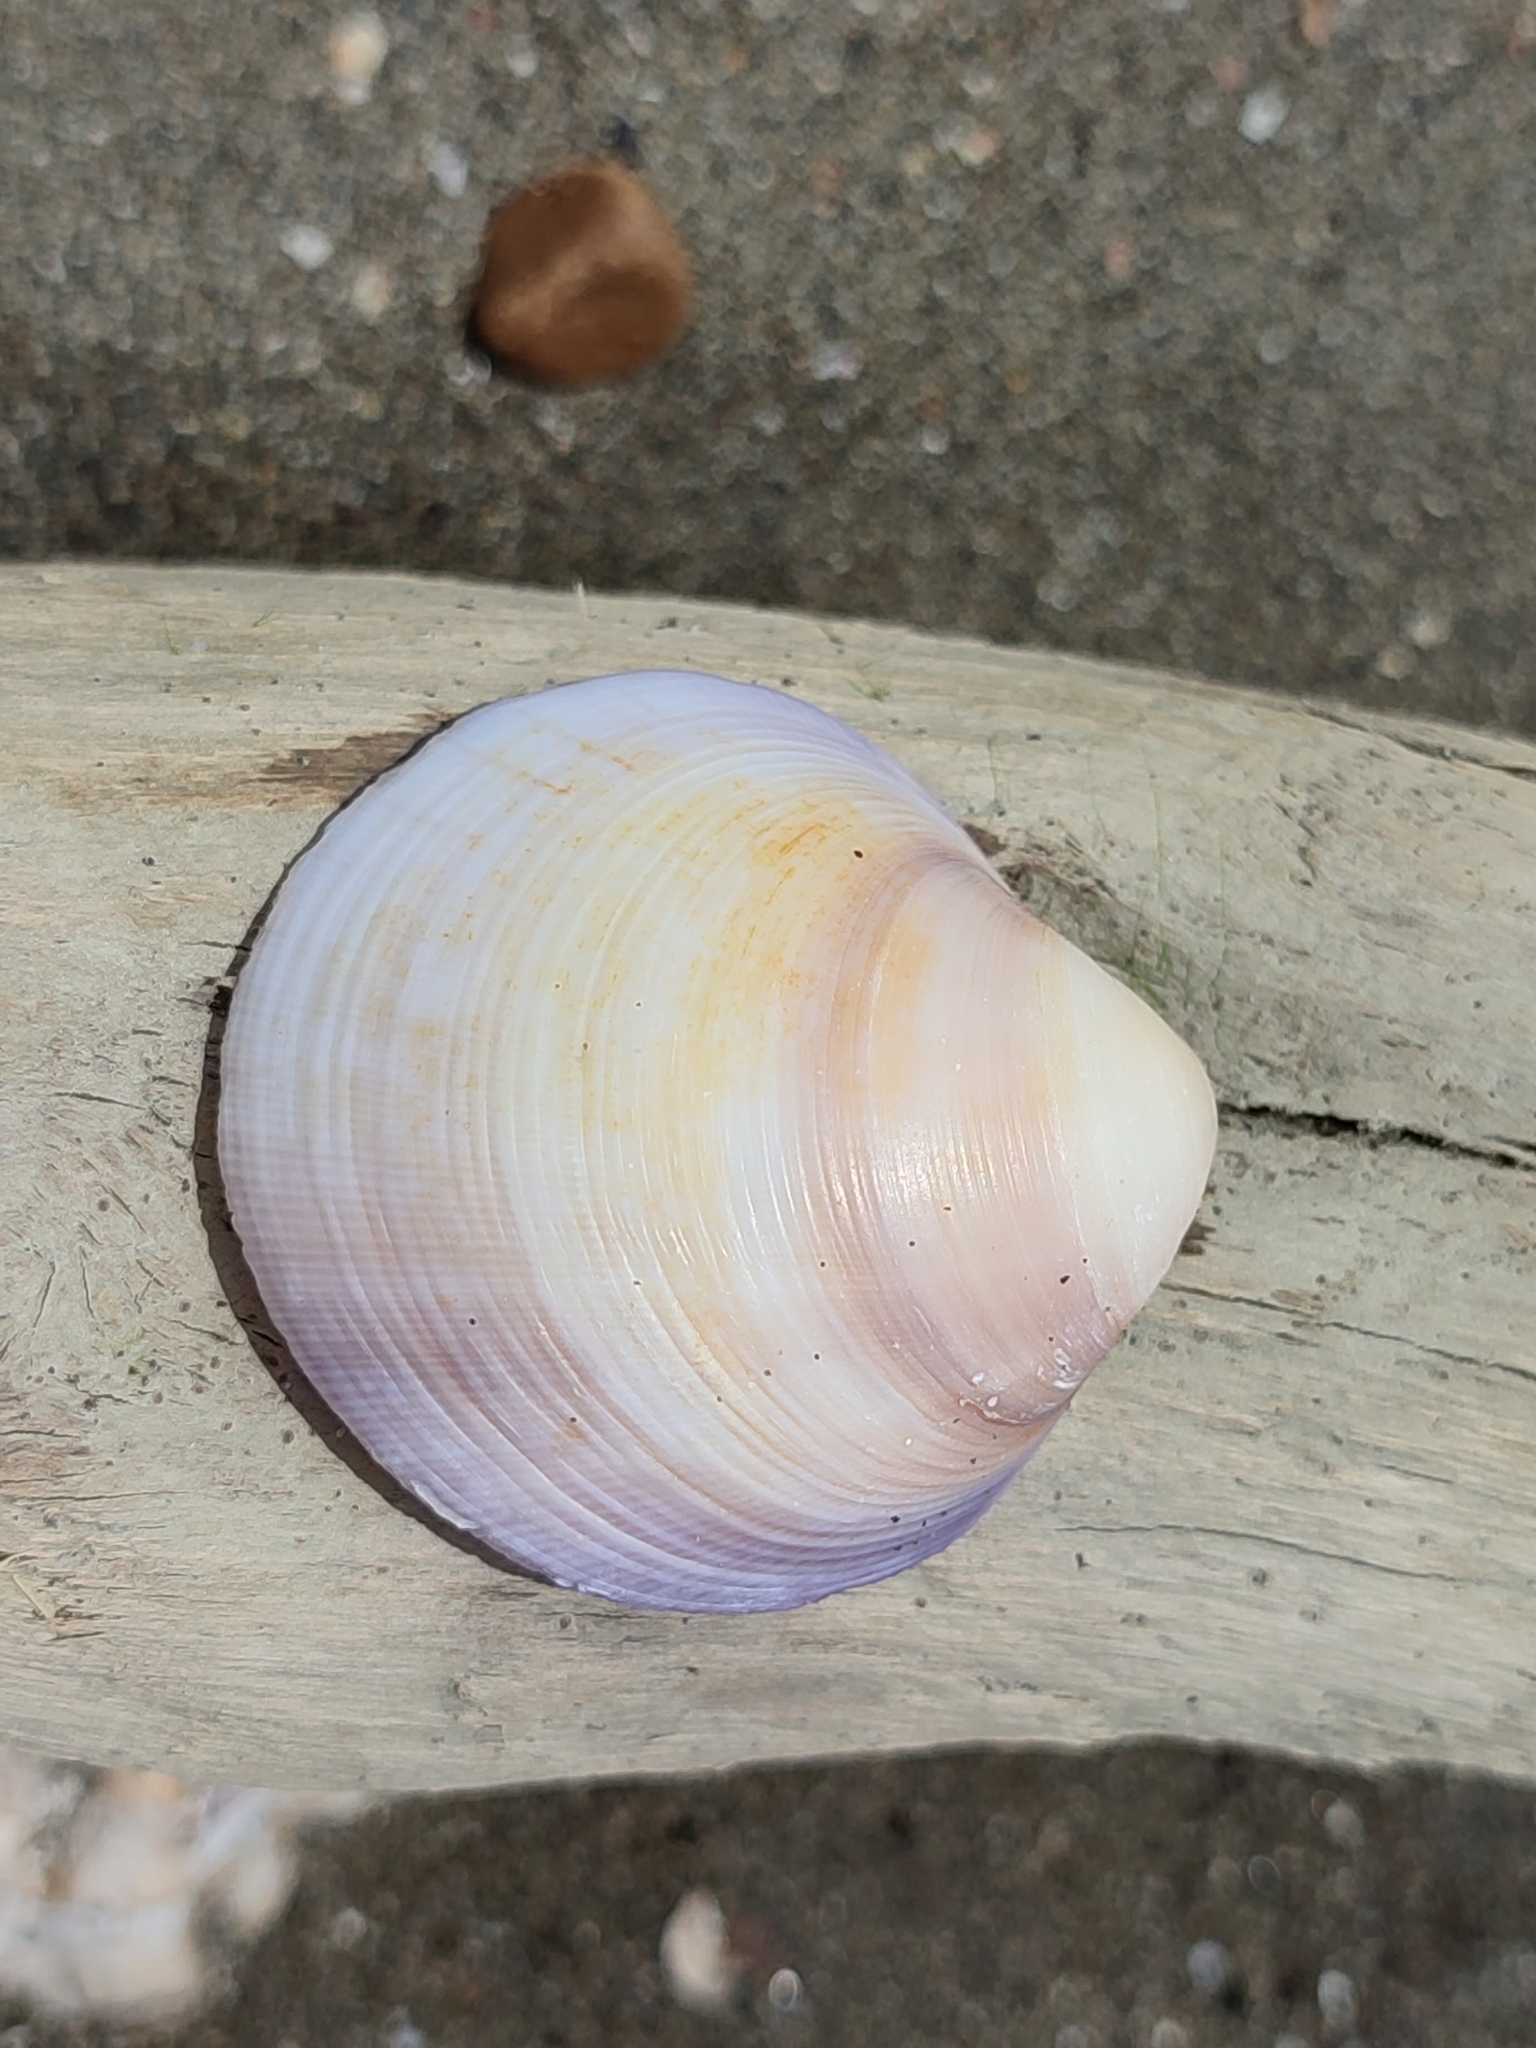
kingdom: Animalia
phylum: Mollusca
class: Bivalvia
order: Venerida
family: Veneridae
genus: Cyclina
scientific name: Cyclina sinensis
